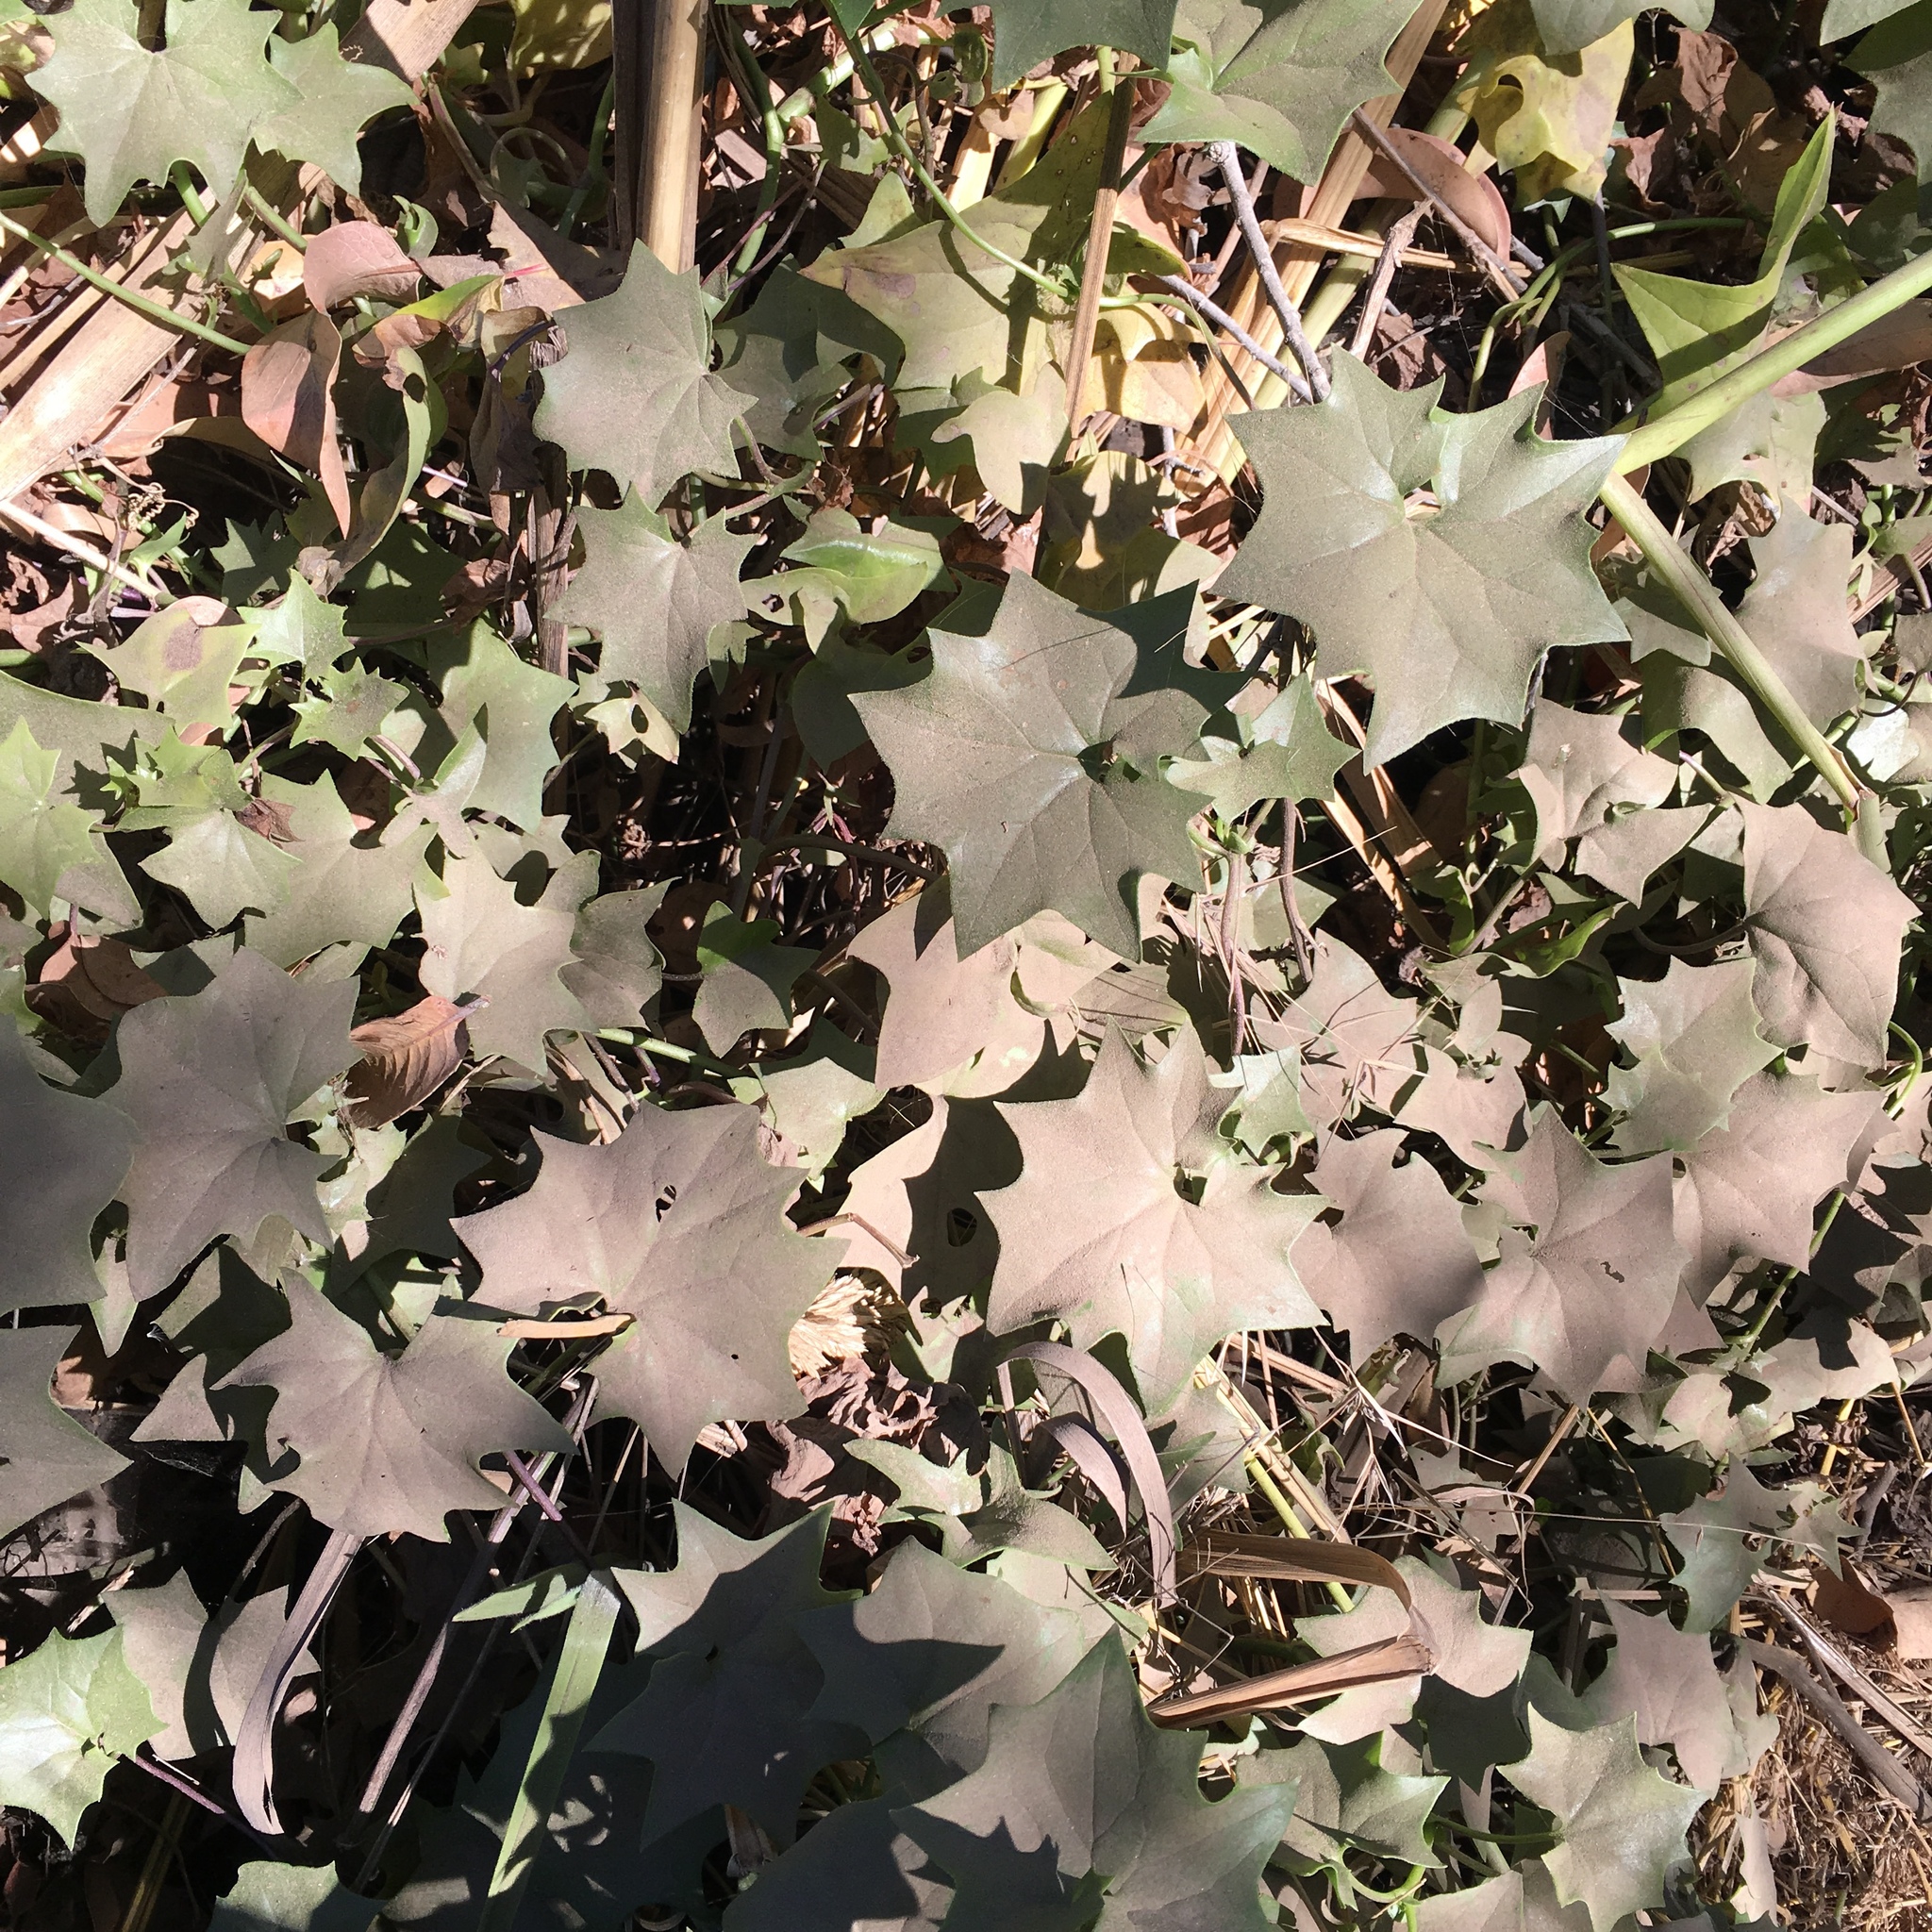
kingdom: Plantae
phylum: Tracheophyta
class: Magnoliopsida
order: Asterales
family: Asteraceae
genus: Delairea
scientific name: Delairea odorata
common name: Cape-ivy
